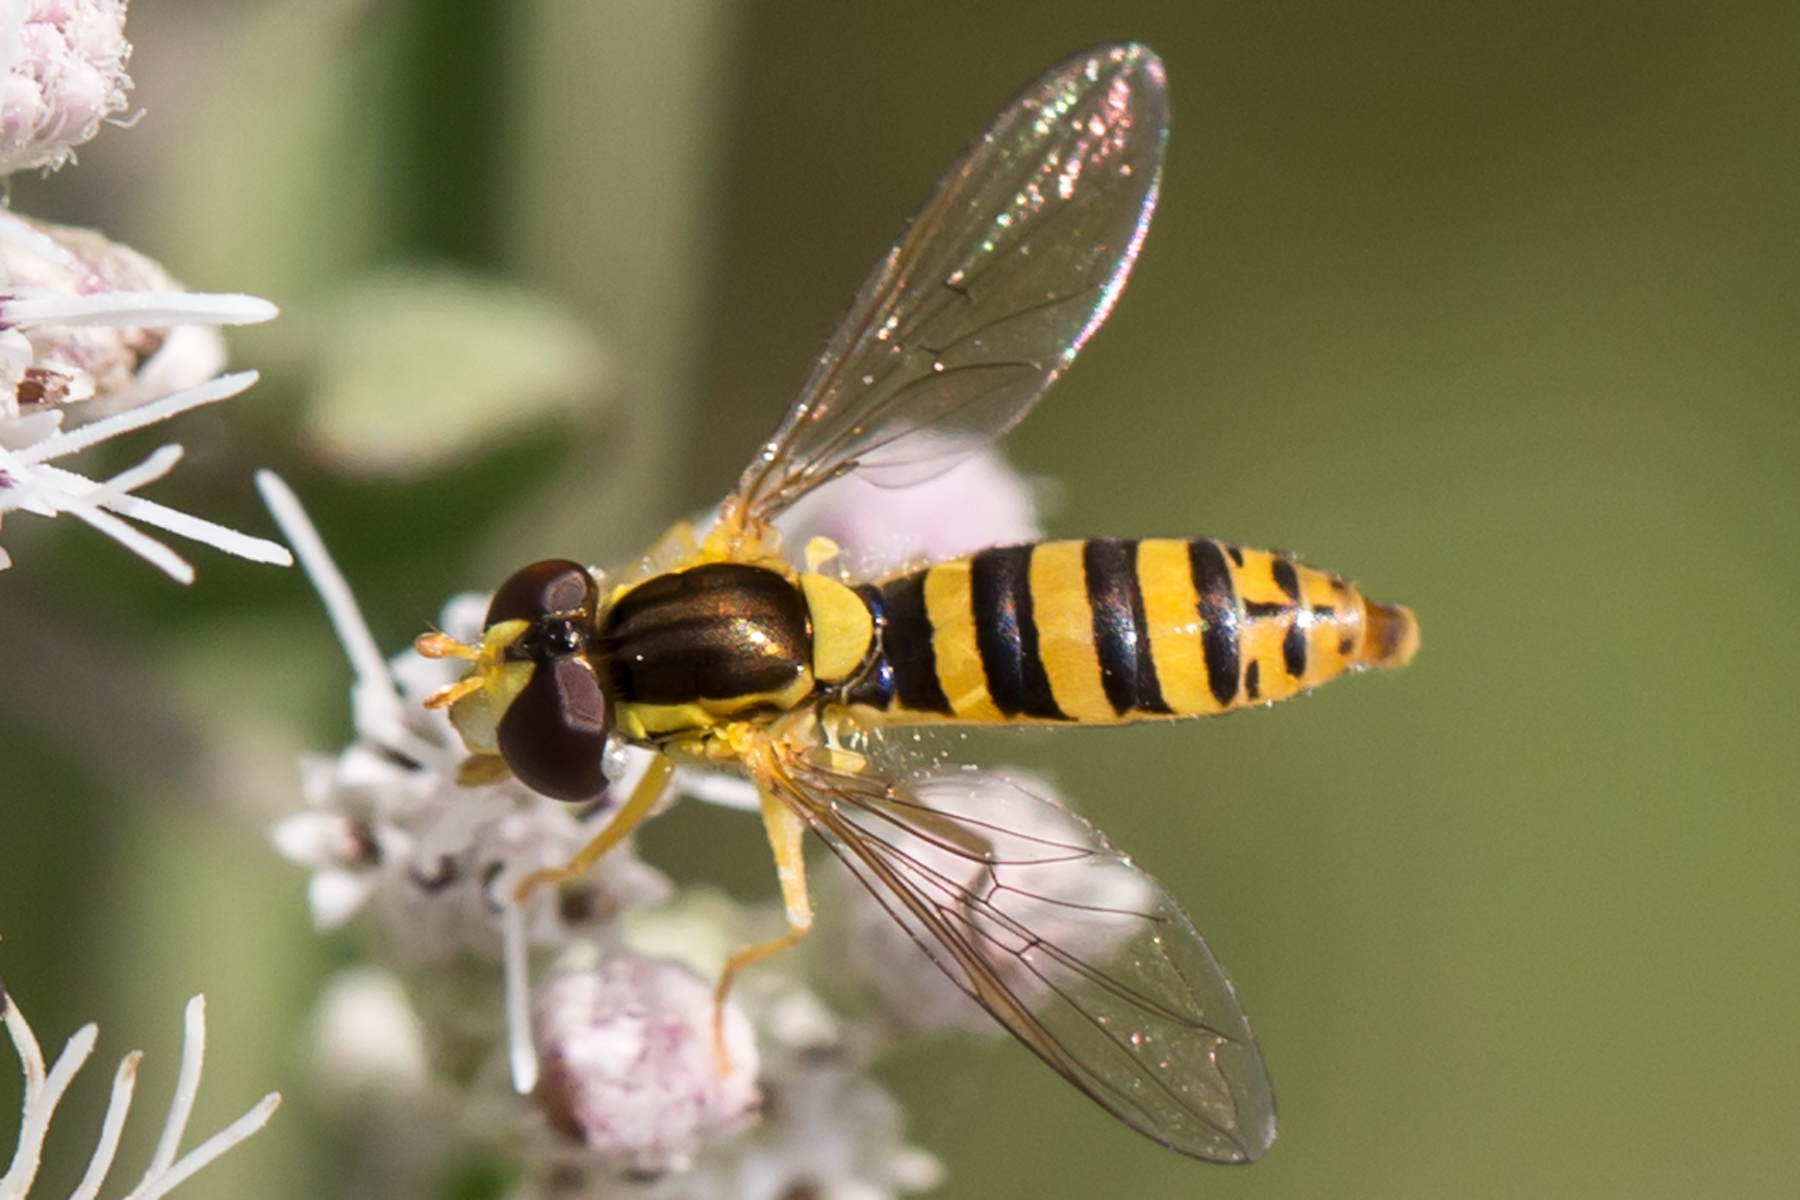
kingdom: Animalia
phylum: Arthropoda
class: Insecta
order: Diptera
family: Syrphidae
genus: Sphaerophoria
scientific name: Sphaerophoria
